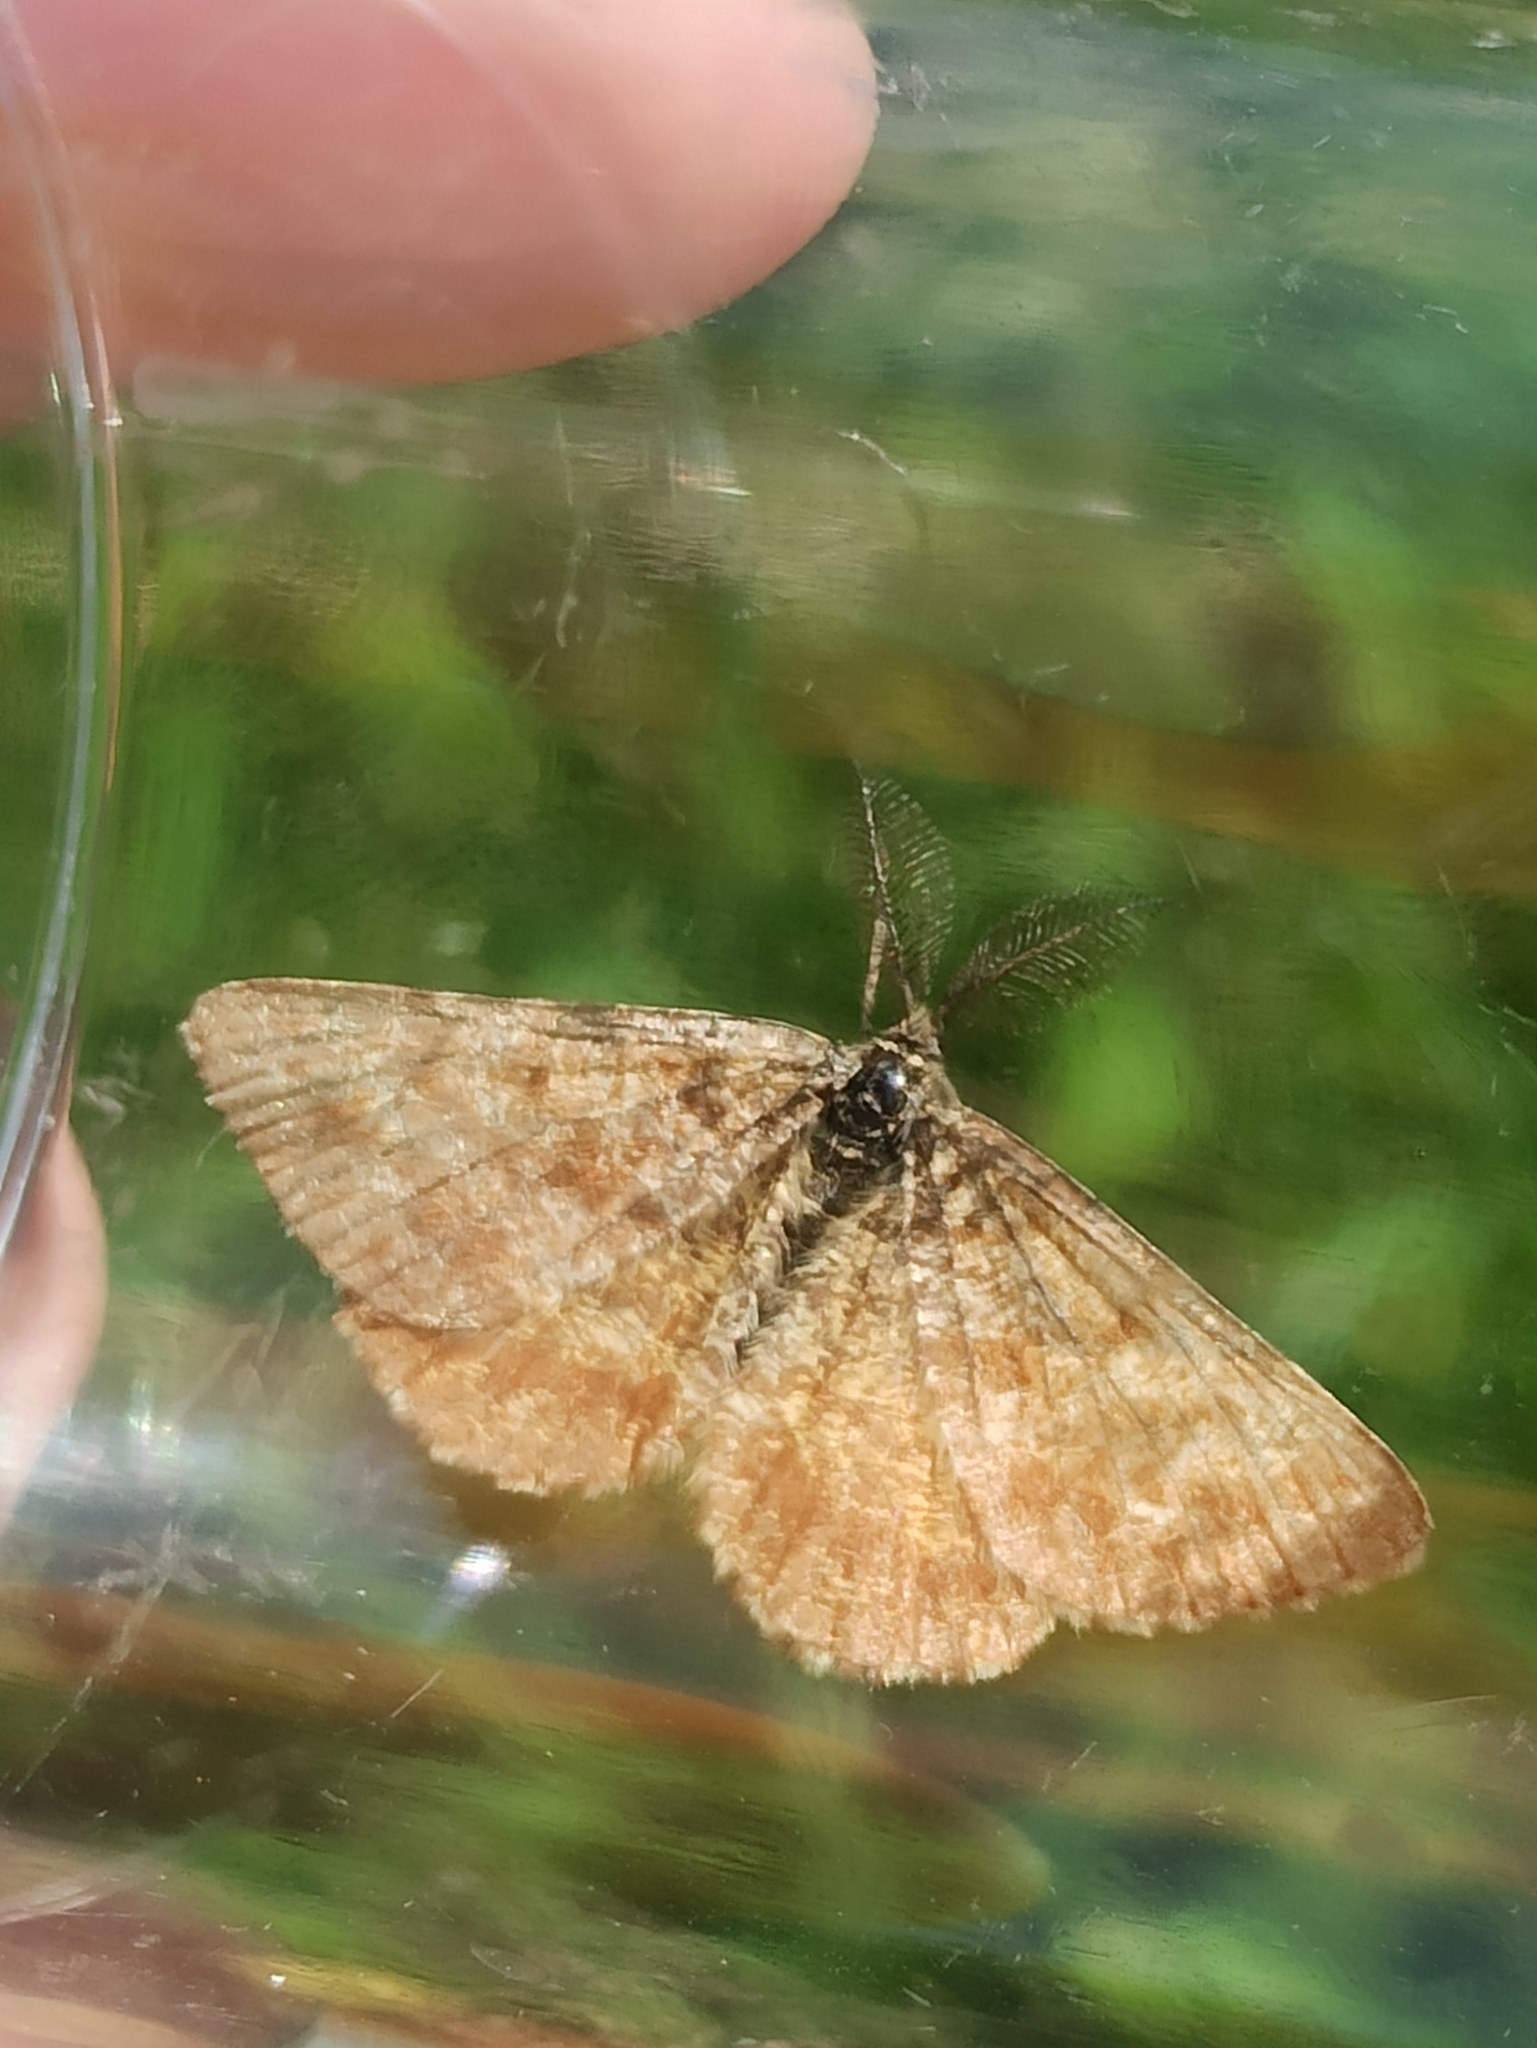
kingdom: Animalia
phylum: Arthropoda
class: Insecta
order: Lepidoptera
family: Geometridae
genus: Ematurga
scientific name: Ematurga atomaria
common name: Common heath
